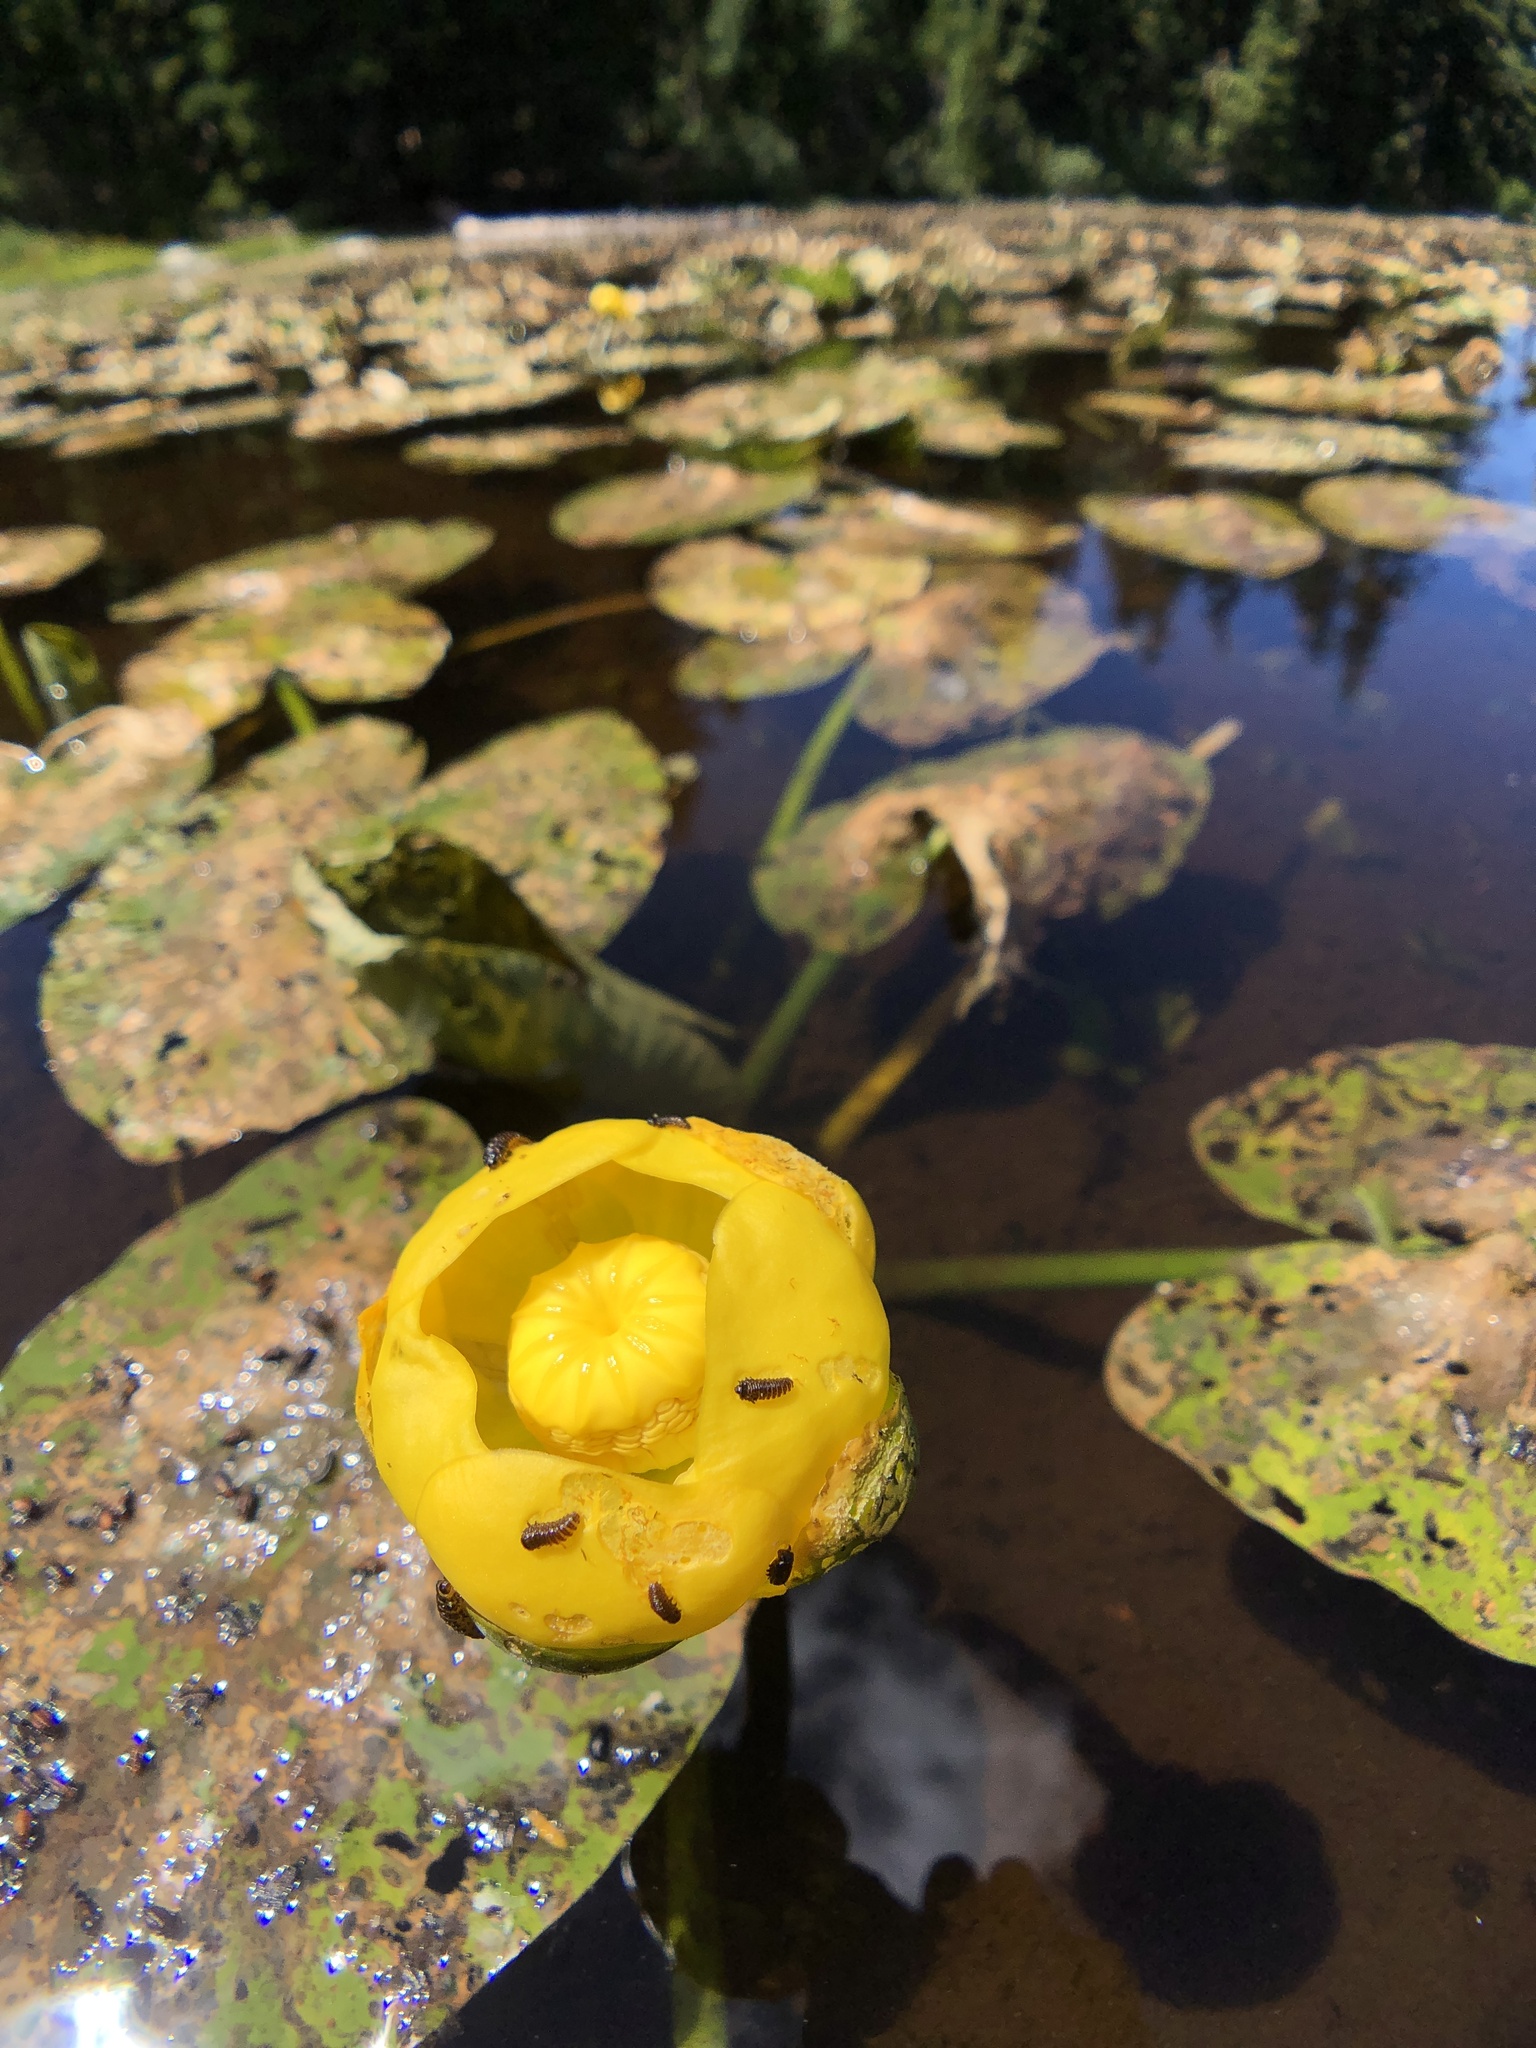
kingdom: Plantae
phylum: Tracheophyta
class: Magnoliopsida
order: Nymphaeales
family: Nymphaeaceae
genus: Nuphar
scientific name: Nuphar polysepala
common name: Rocky mountain cow-lily
